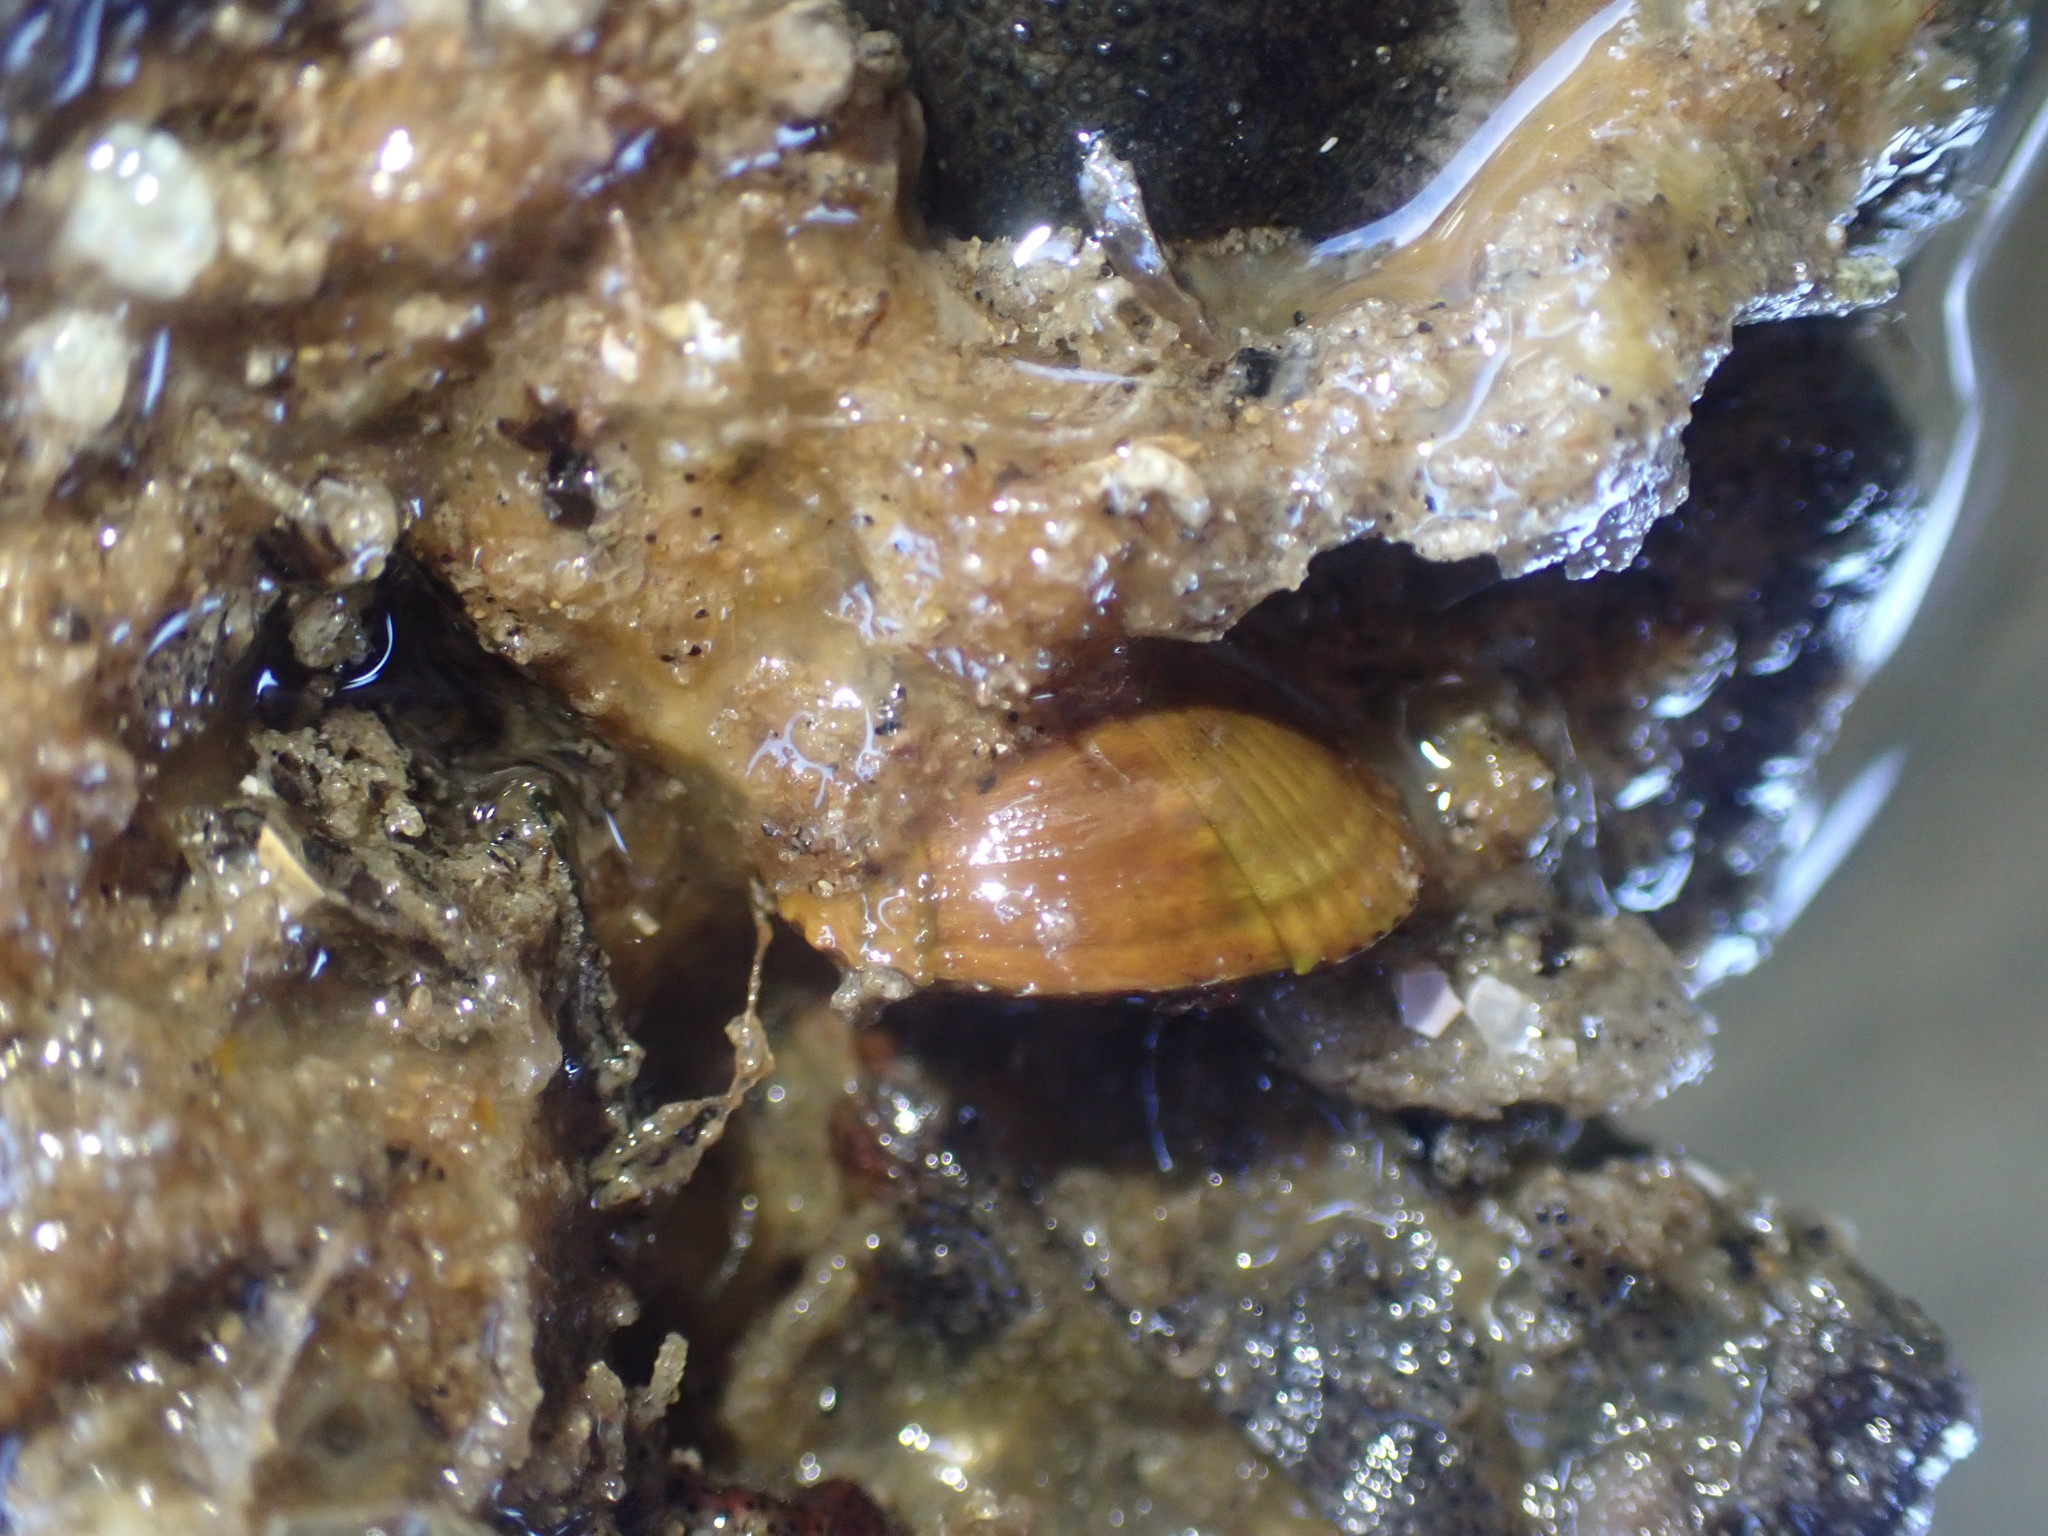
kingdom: Animalia
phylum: Mollusca
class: Bivalvia
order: Mytilida
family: Mytilidae
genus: Musculus
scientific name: Musculus impactus
